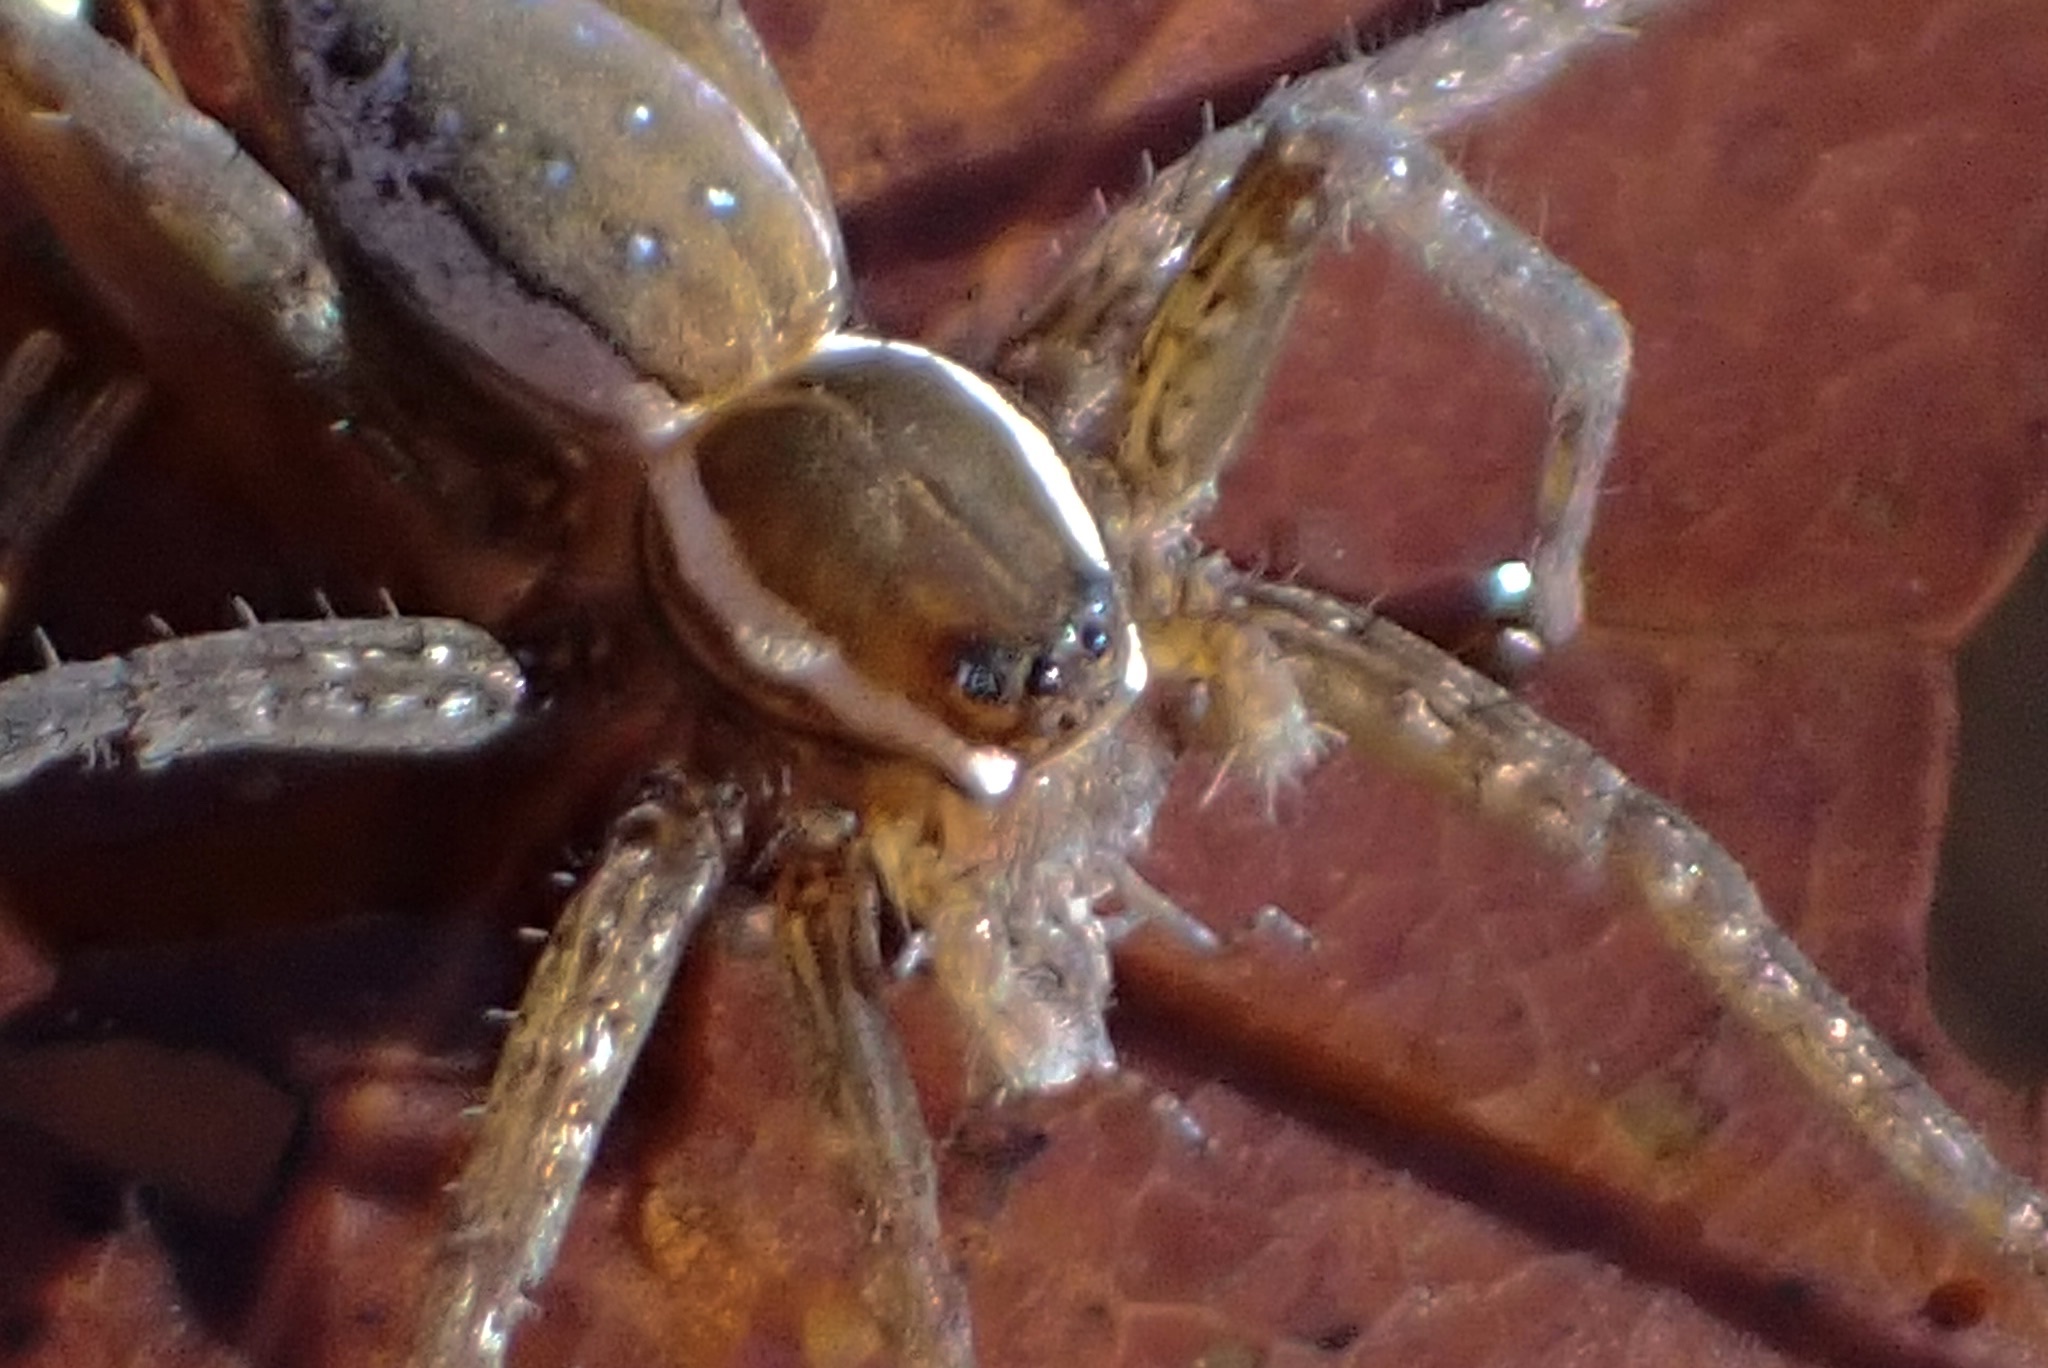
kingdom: Animalia
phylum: Arthropoda
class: Arachnida
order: Araneae
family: Pisauridae
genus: Dolomedes
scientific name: Dolomedes triton
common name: Six-spotted fishing spider
